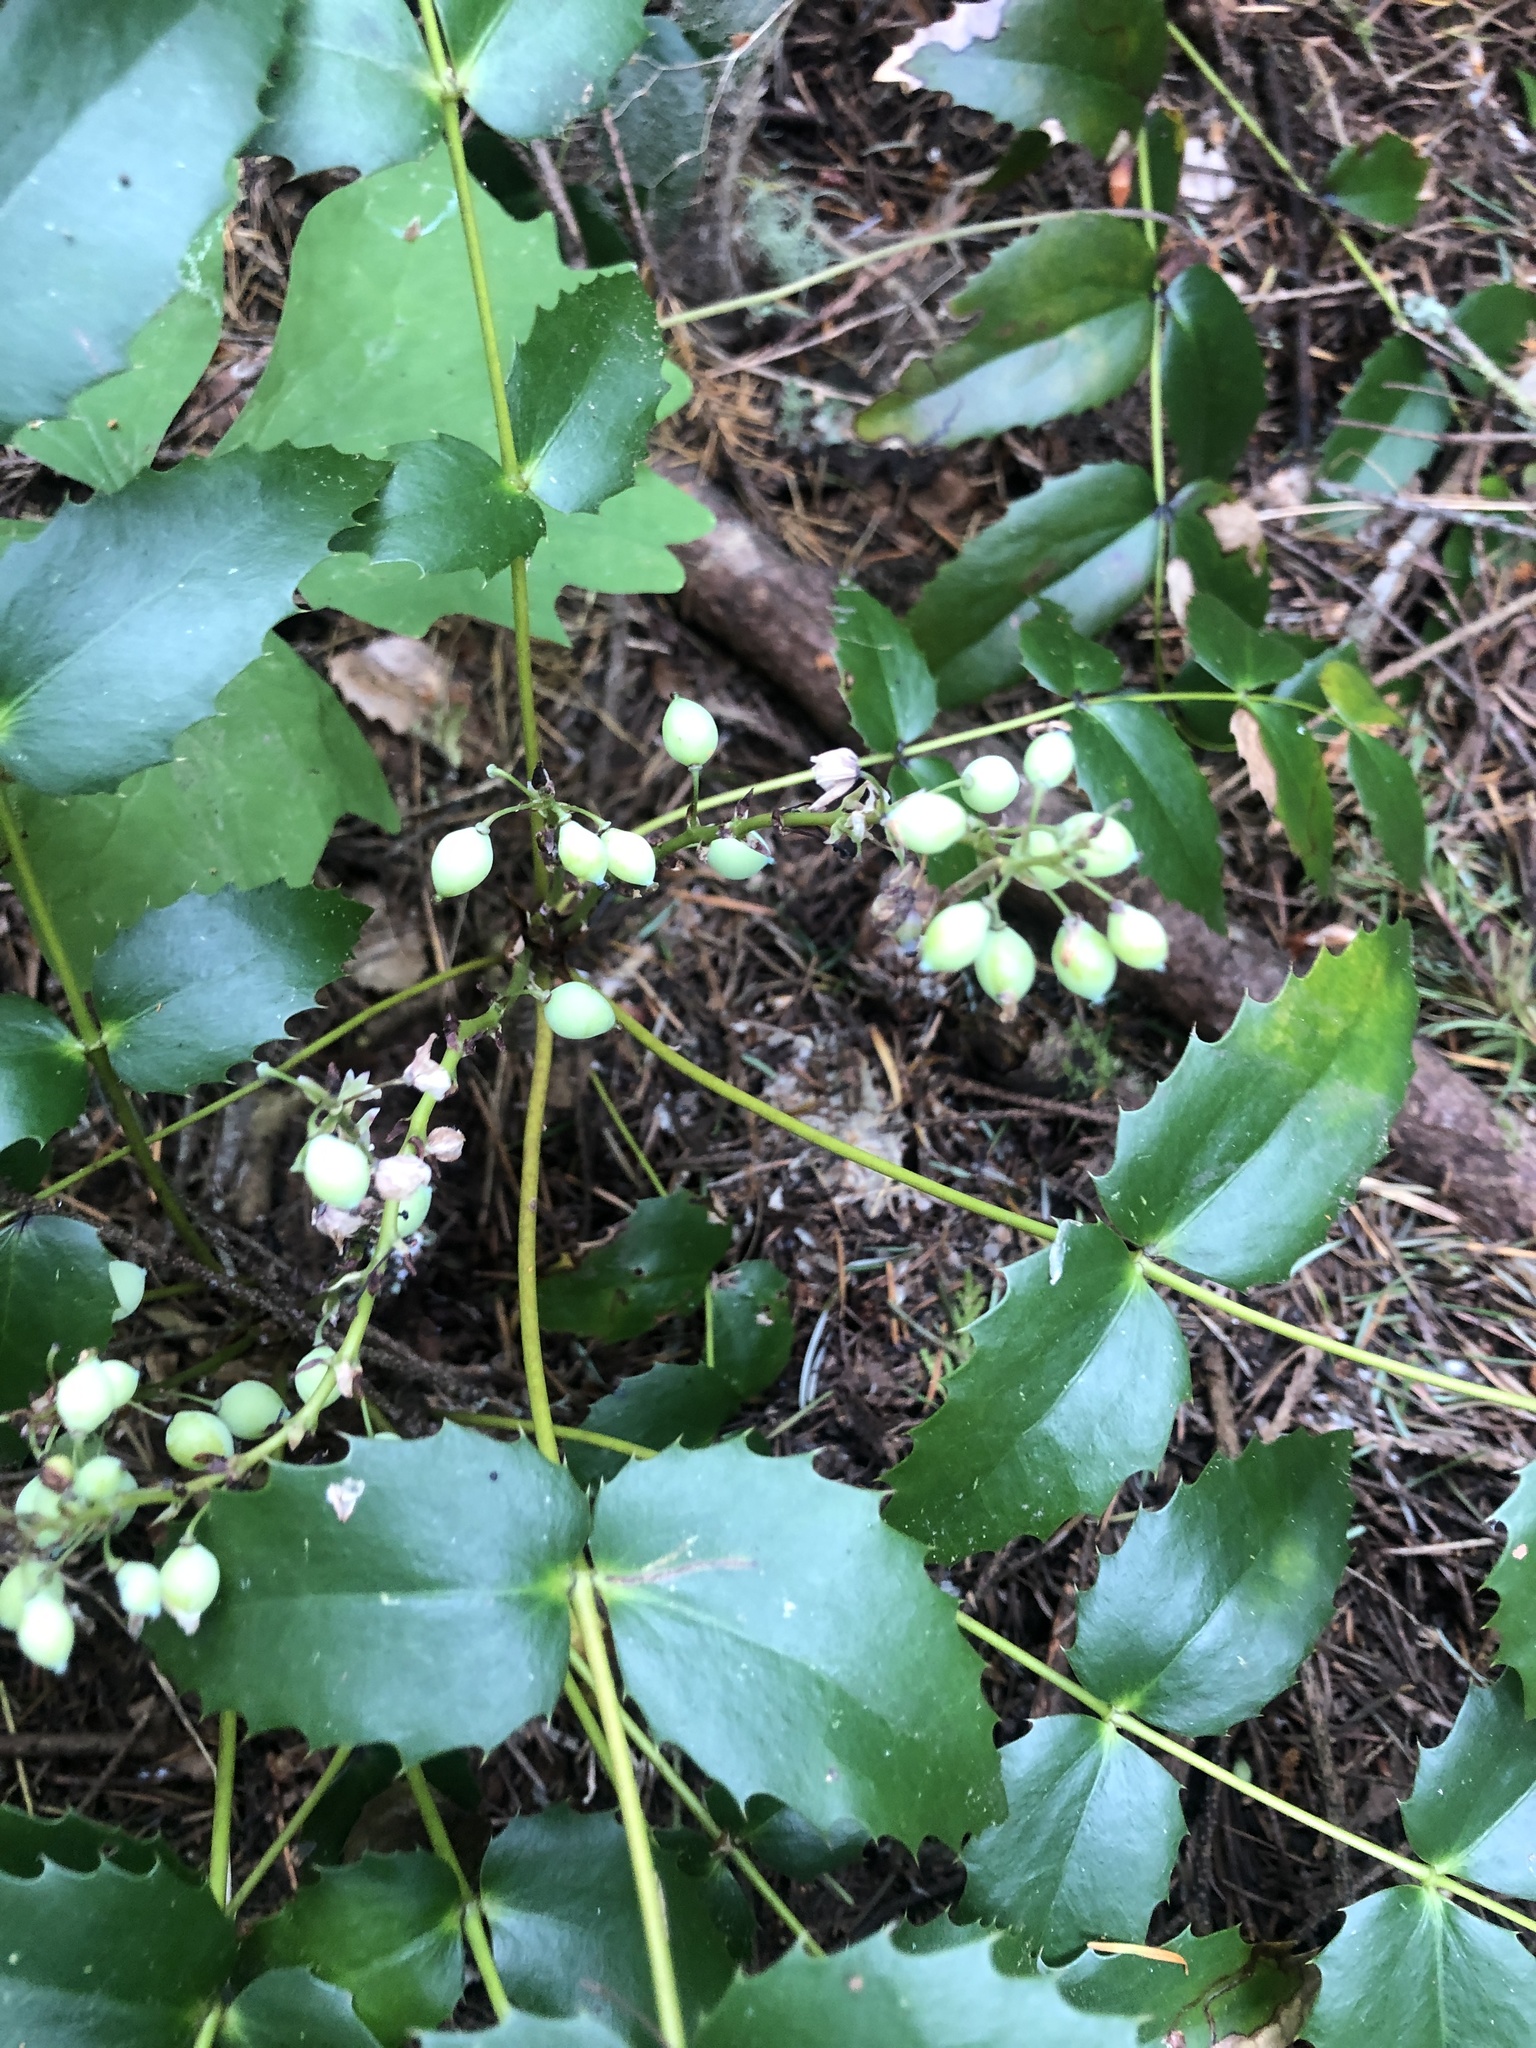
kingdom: Plantae
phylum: Tracheophyta
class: Magnoliopsida
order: Ranunculales
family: Berberidaceae
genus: Mahonia
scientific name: Mahonia nervosa
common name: Cascade oregon-grape
